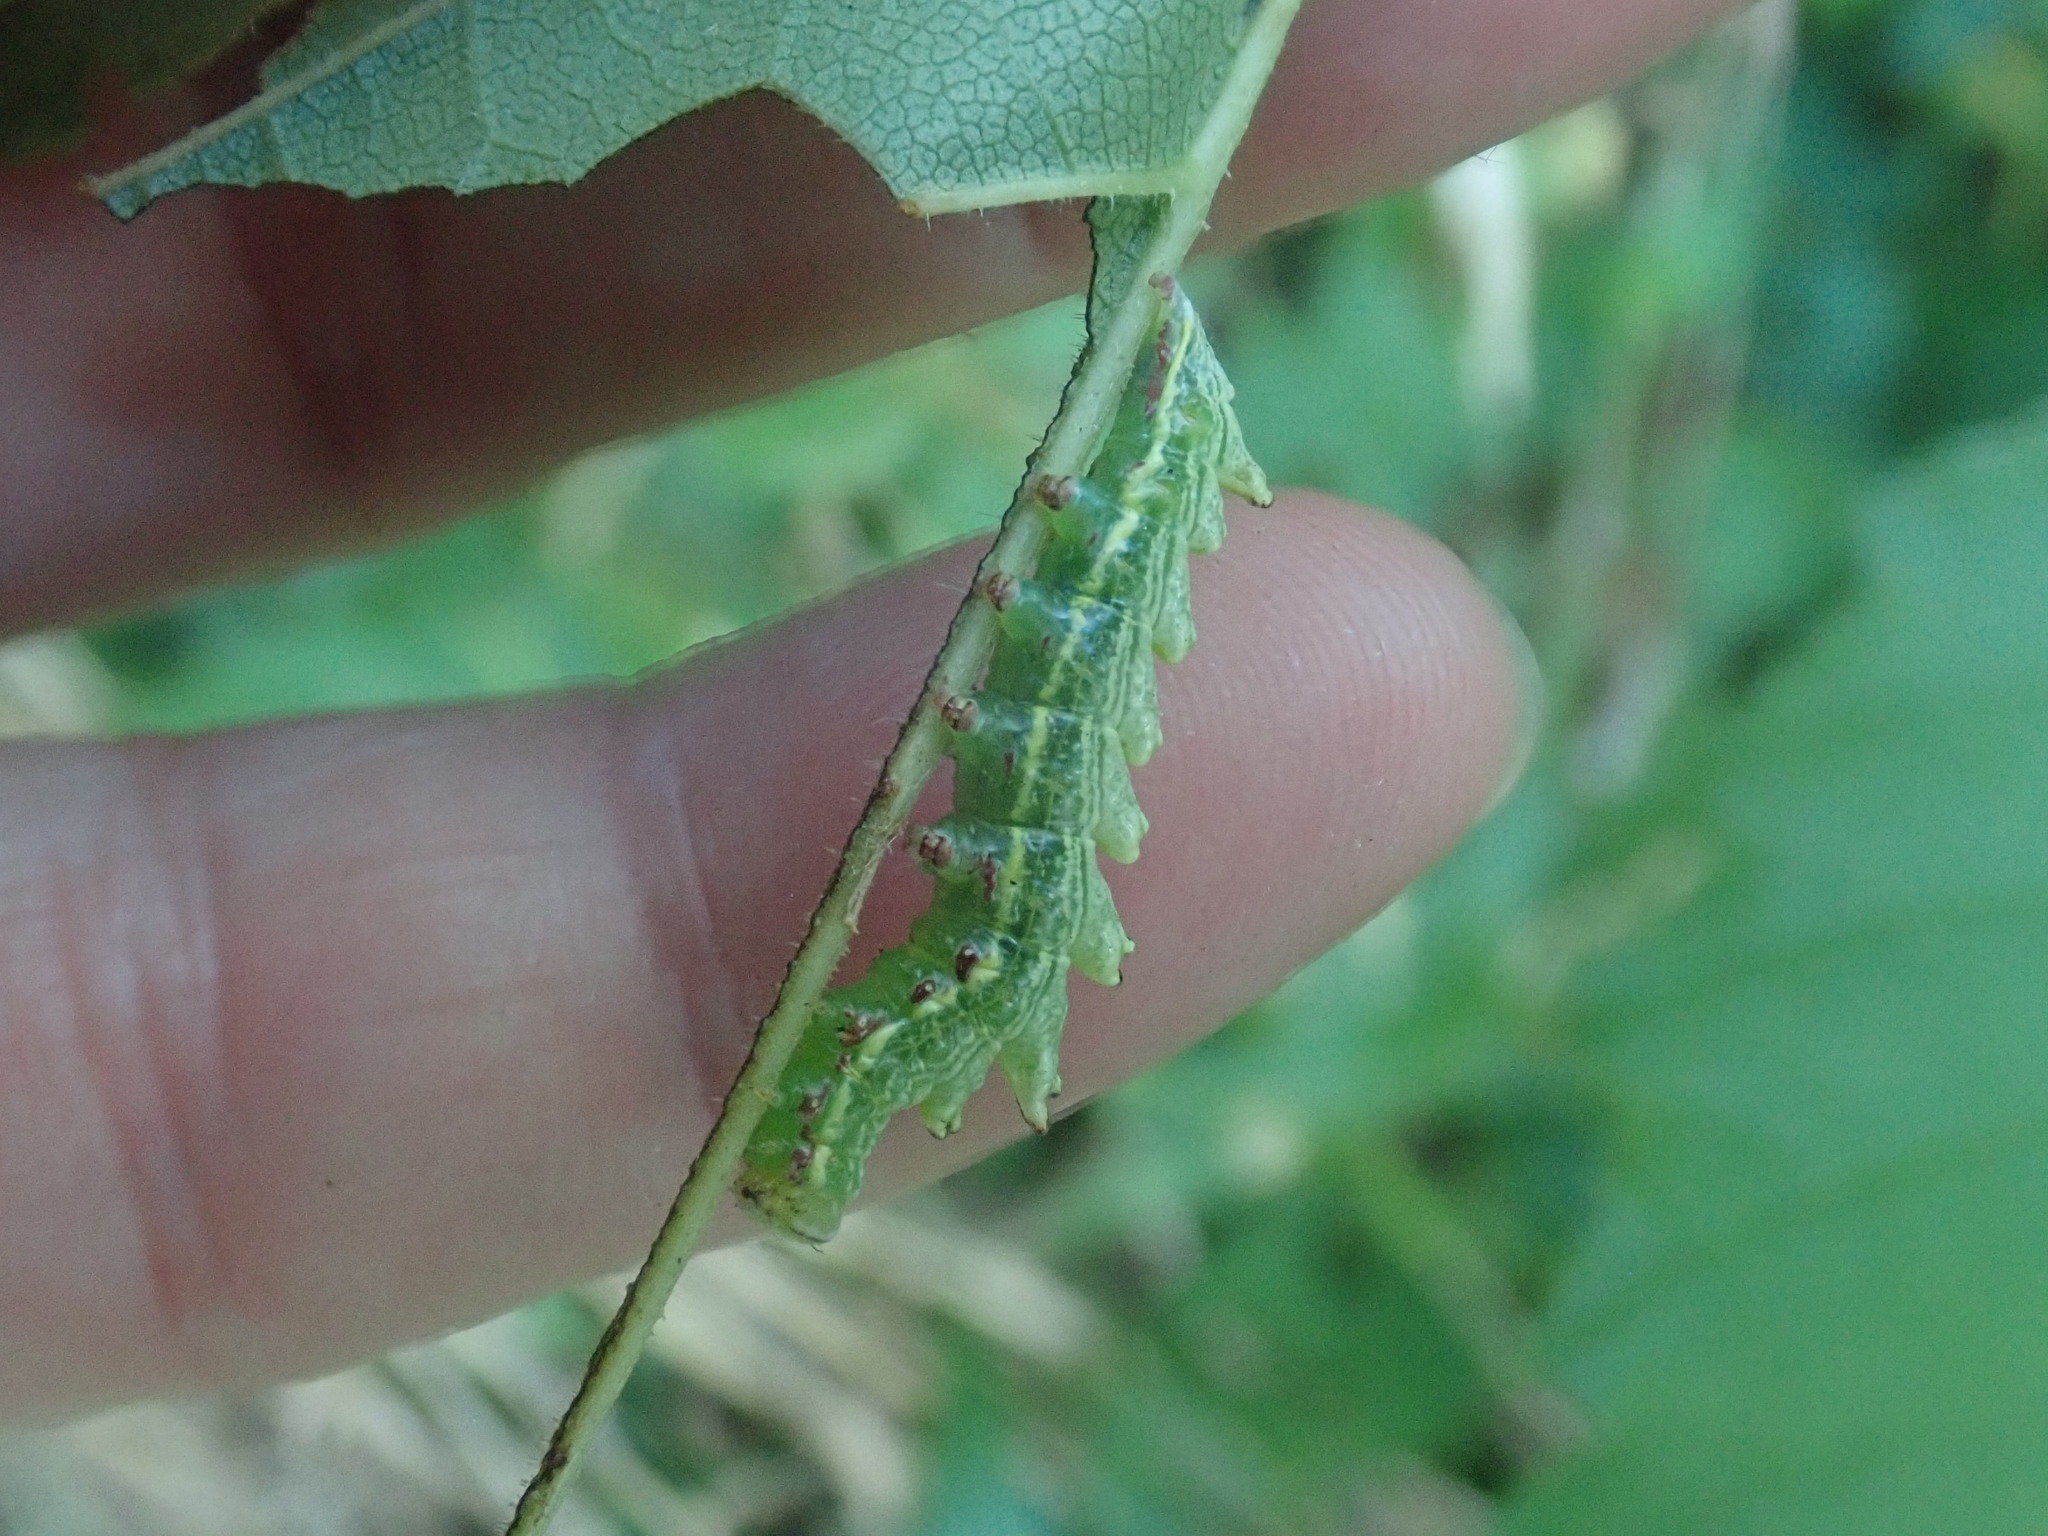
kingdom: Animalia
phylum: Arthropoda
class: Insecta
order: Lepidoptera
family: Notodontidae
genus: Nerice
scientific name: Nerice bidentata
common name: Double-toothed prominent
